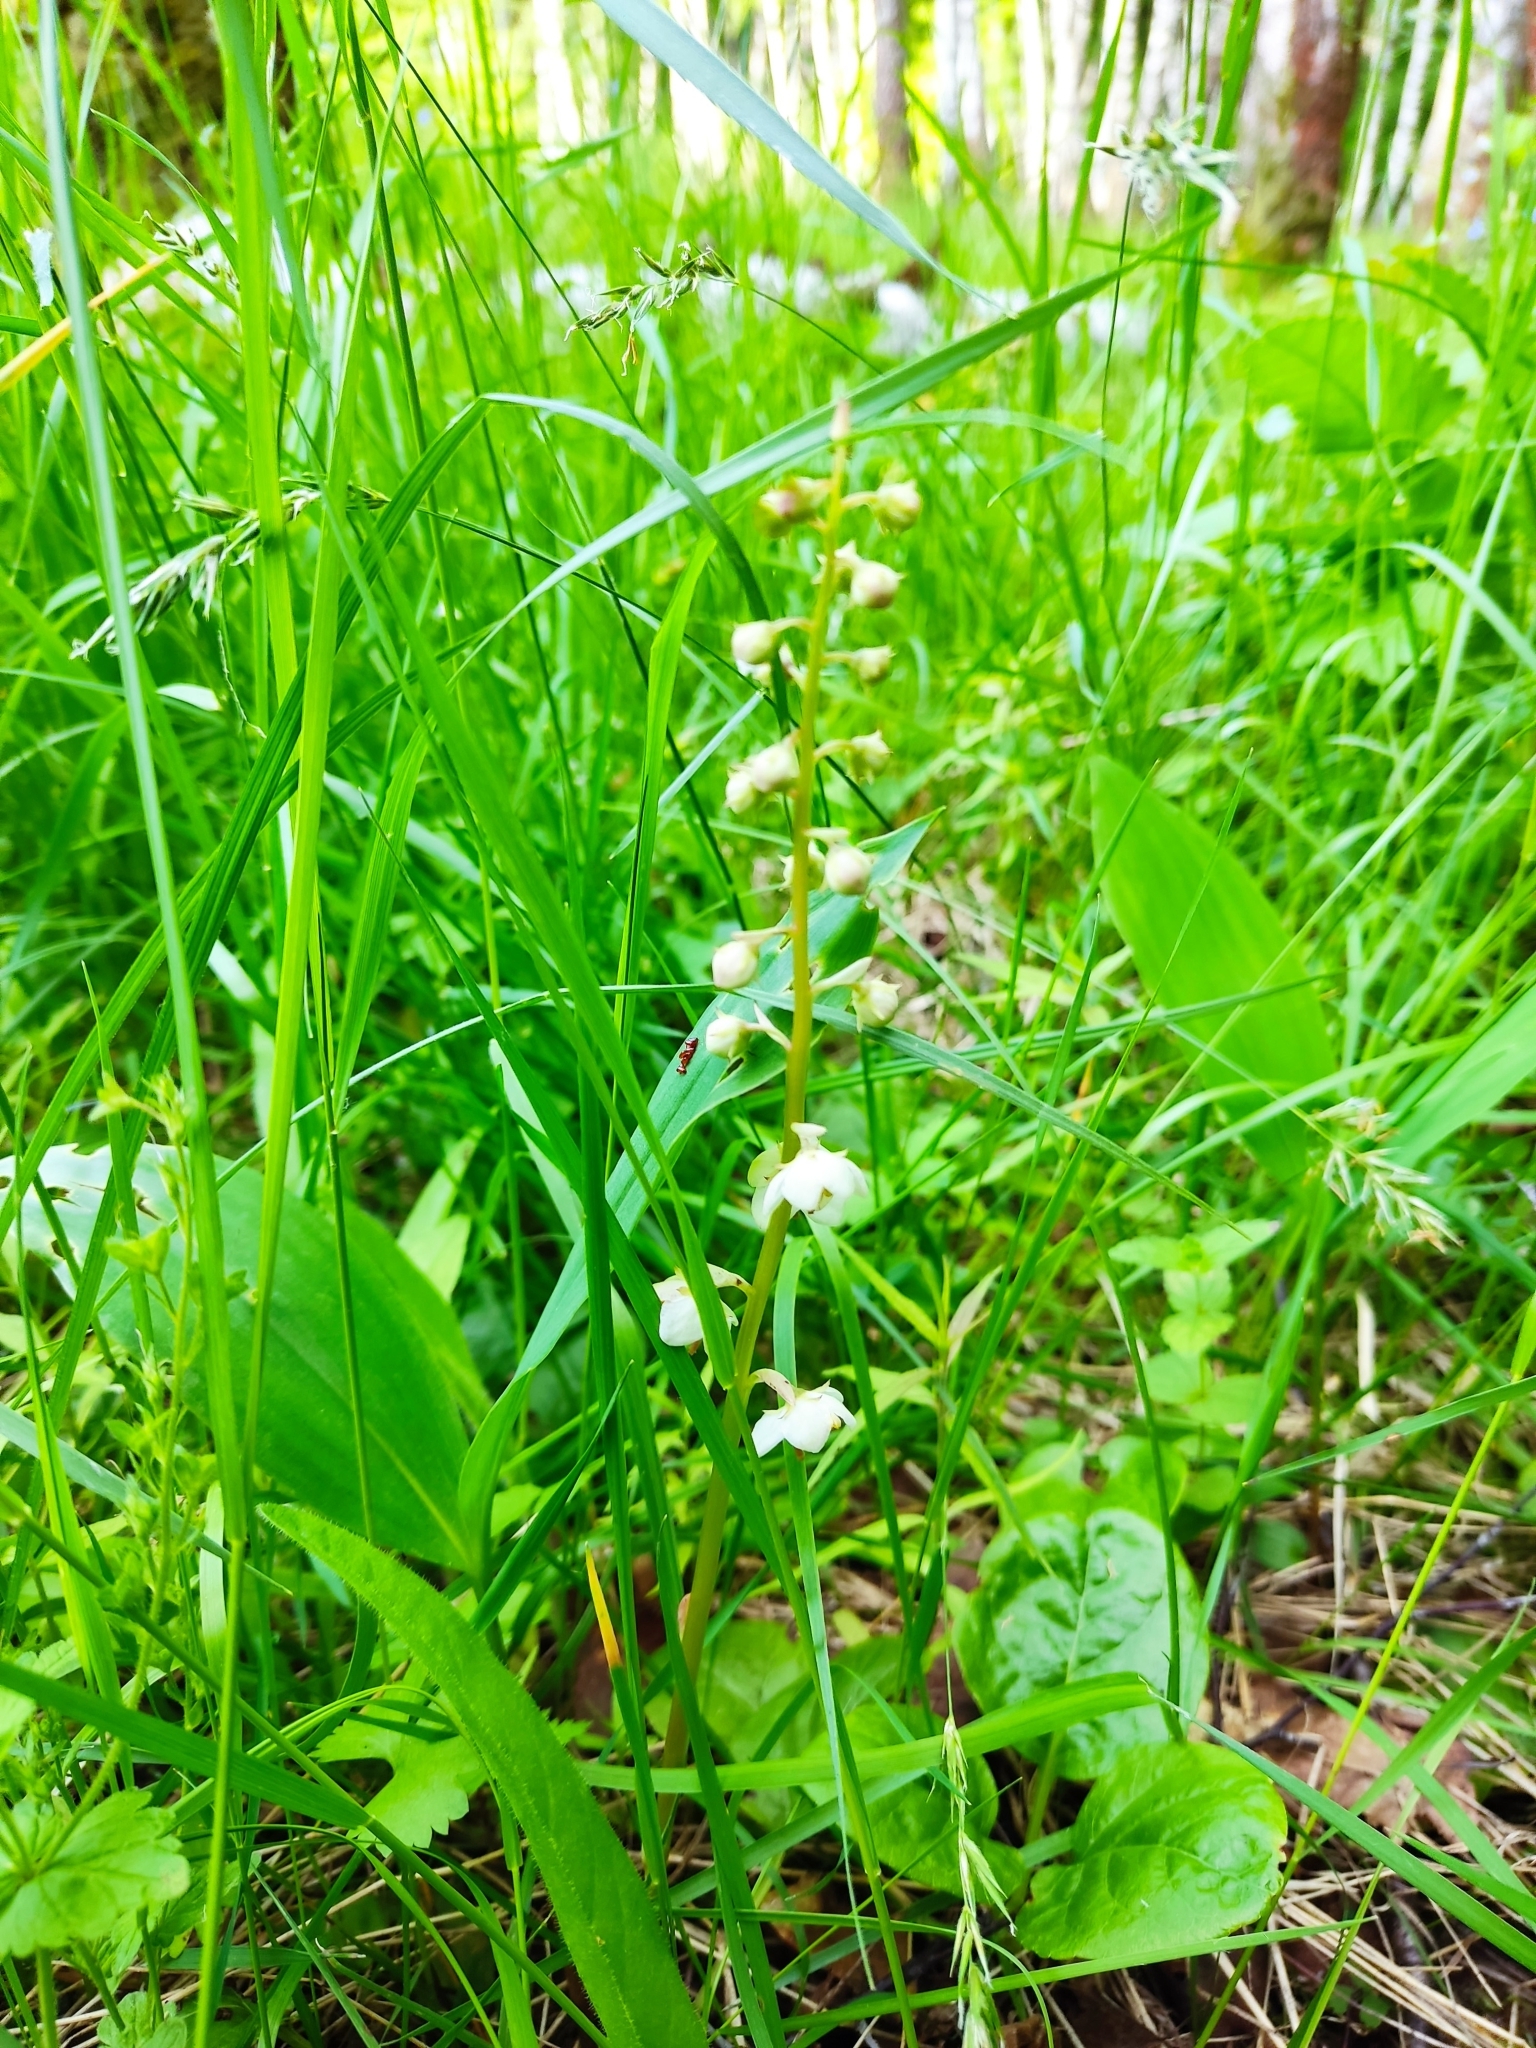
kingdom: Plantae
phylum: Tracheophyta
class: Magnoliopsida
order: Ericales
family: Ericaceae
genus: Pyrola
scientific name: Pyrola rotundifolia
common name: Round-leaved wintergreen
